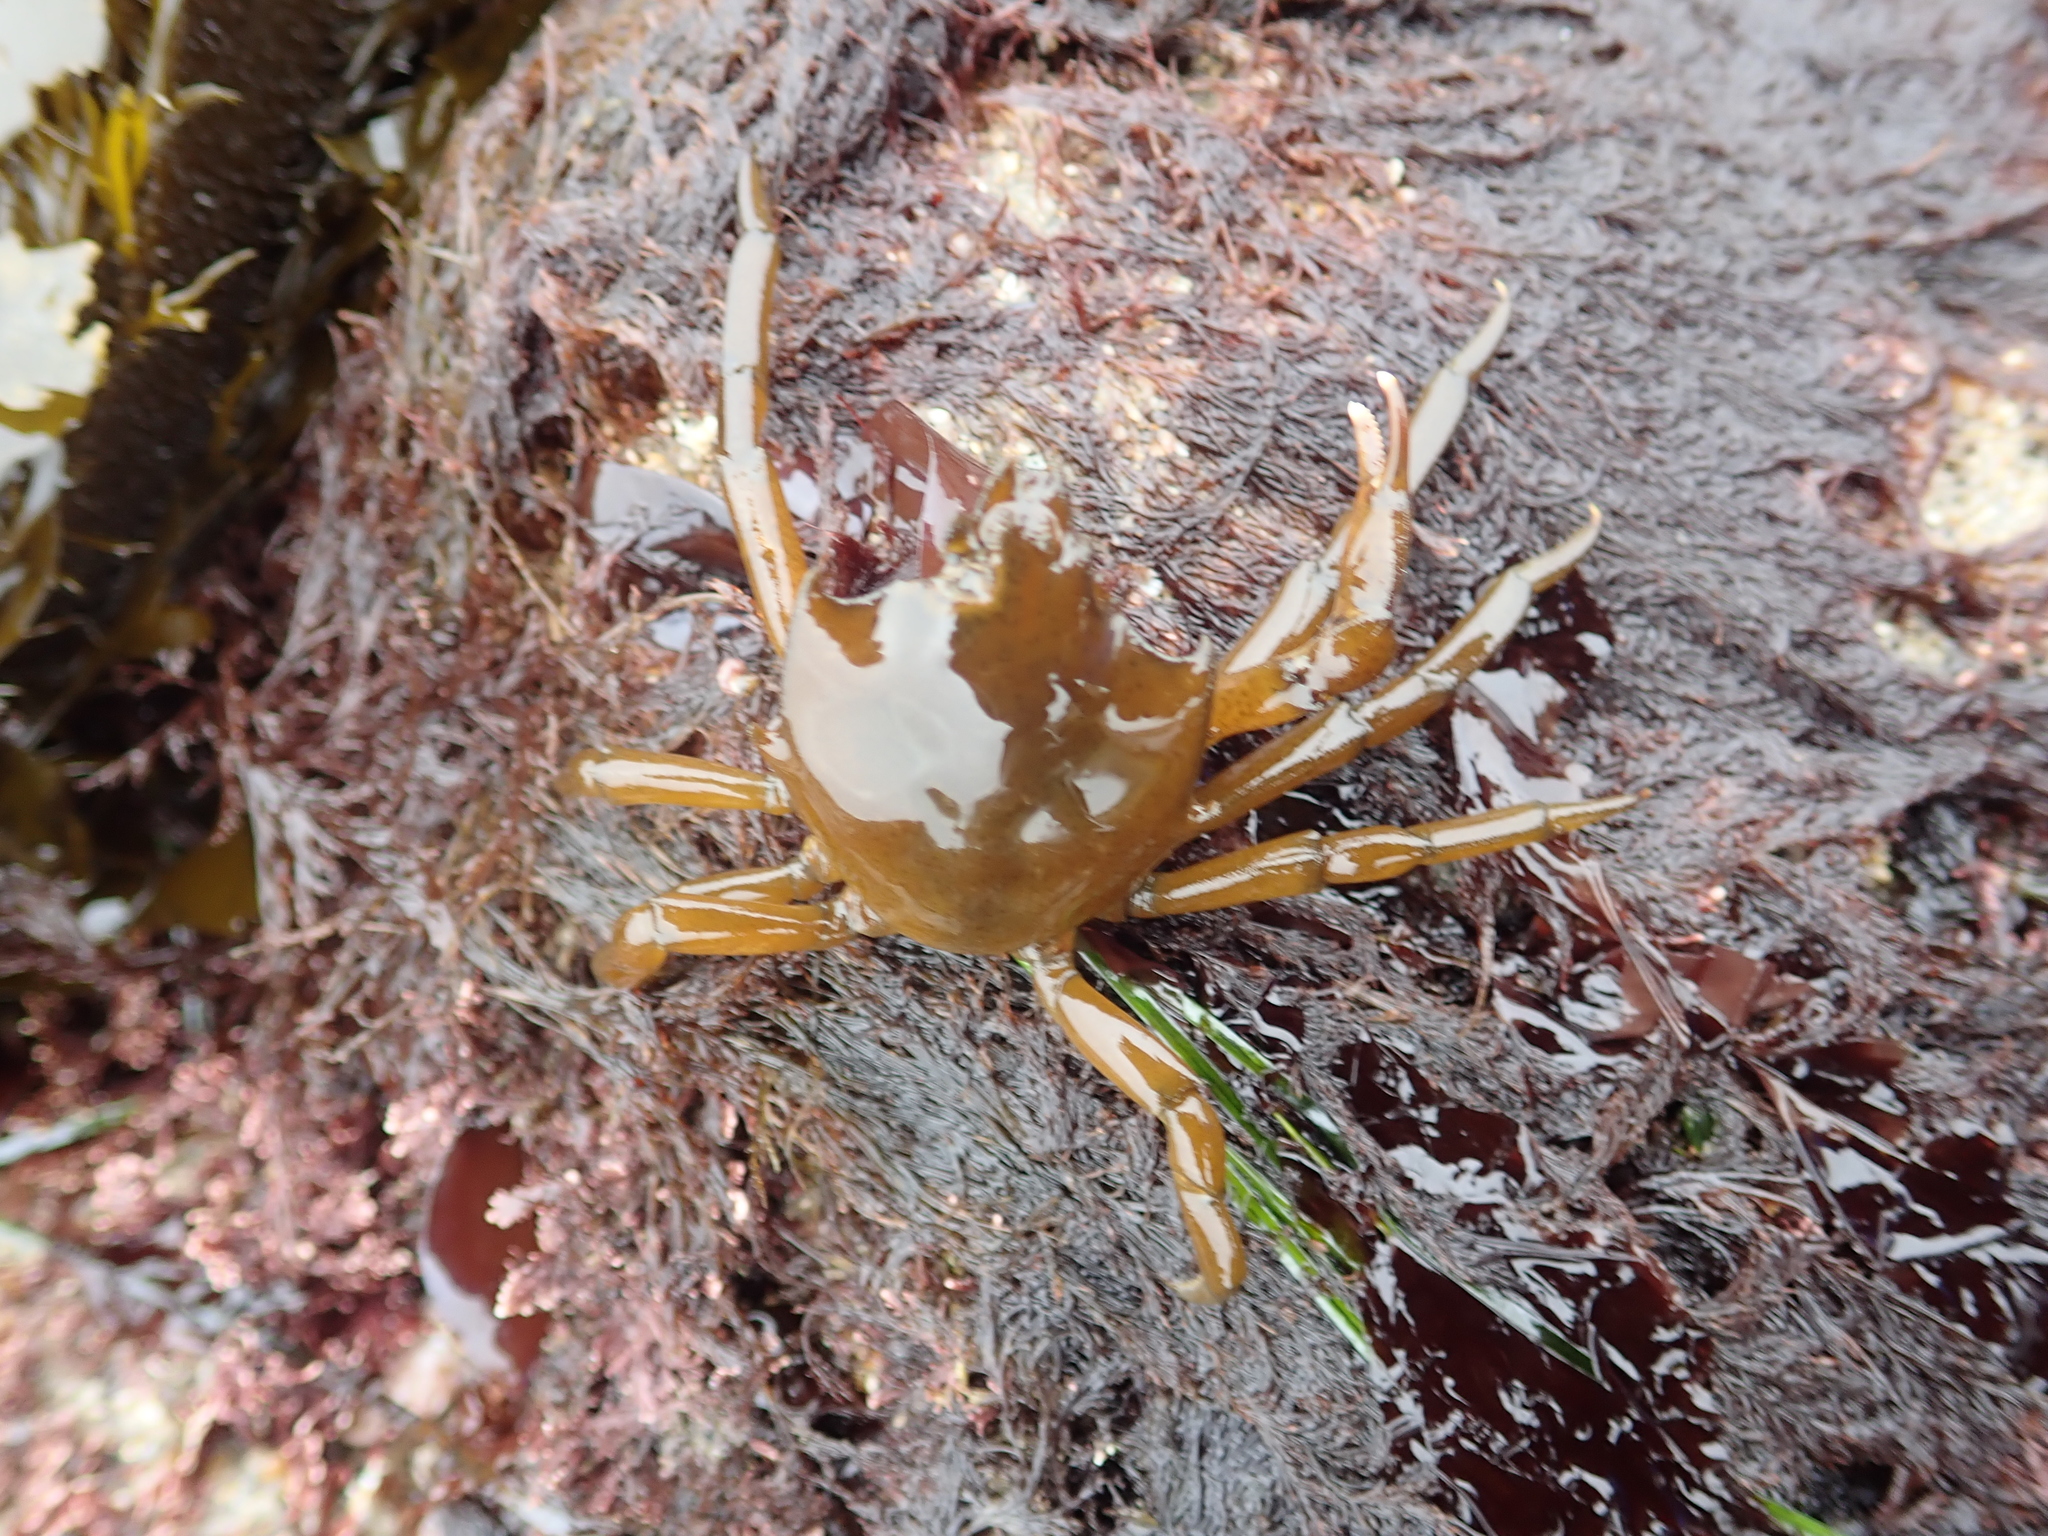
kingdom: Animalia
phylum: Arthropoda
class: Malacostraca
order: Decapoda
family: Epialtidae
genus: Pugettia
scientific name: Pugettia producta
